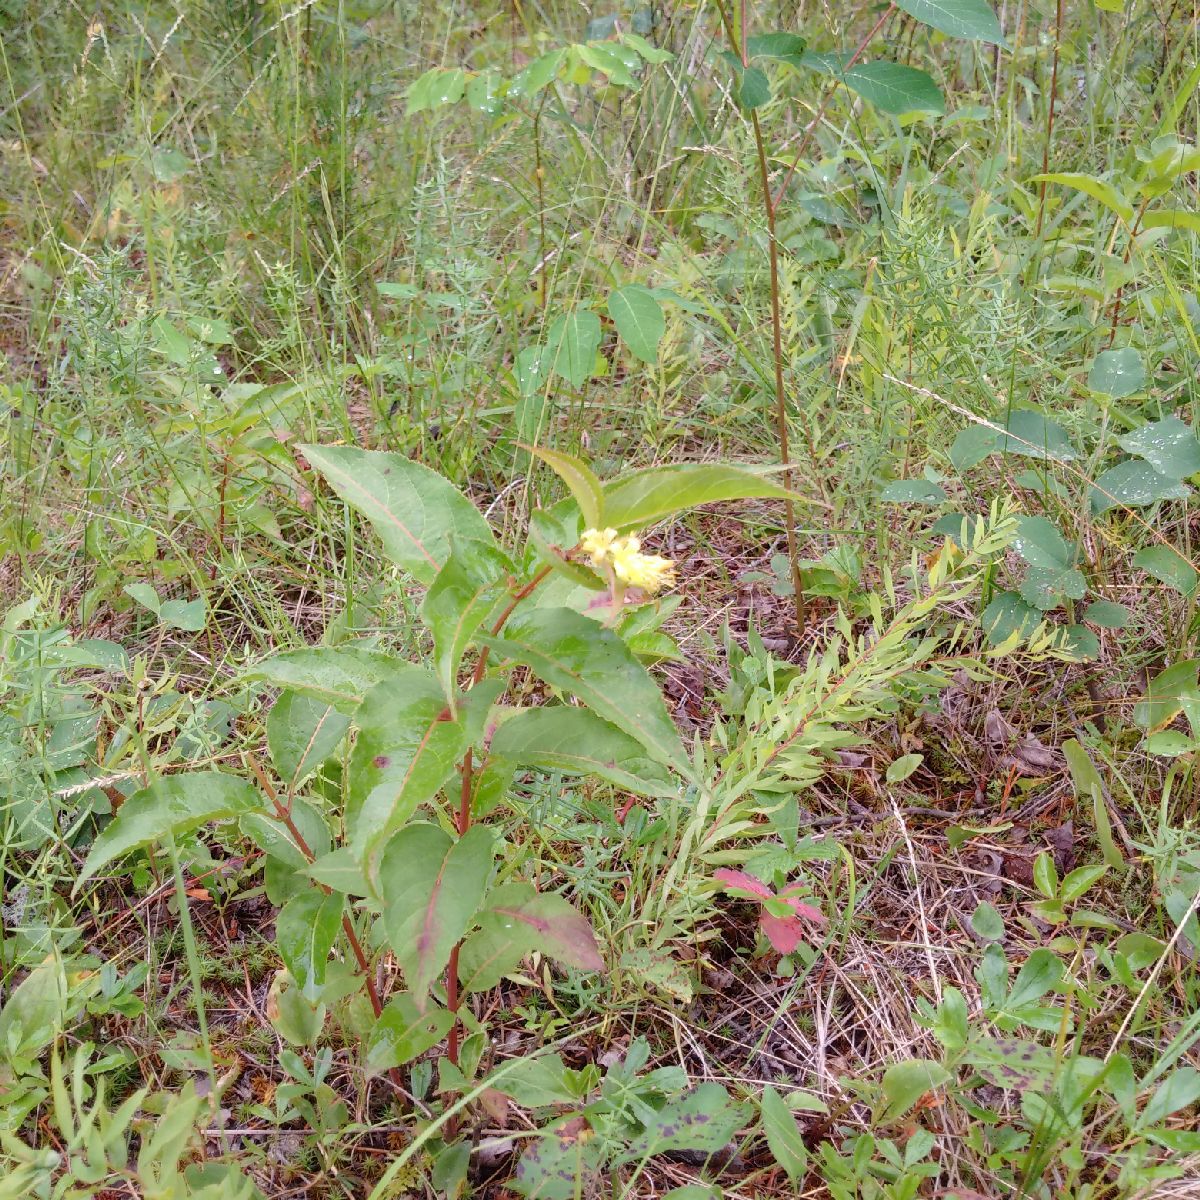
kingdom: Plantae
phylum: Tracheophyta
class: Magnoliopsida
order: Dipsacales
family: Caprifoliaceae
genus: Diervilla
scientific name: Diervilla lonicera
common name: Bush-honeysuckle
